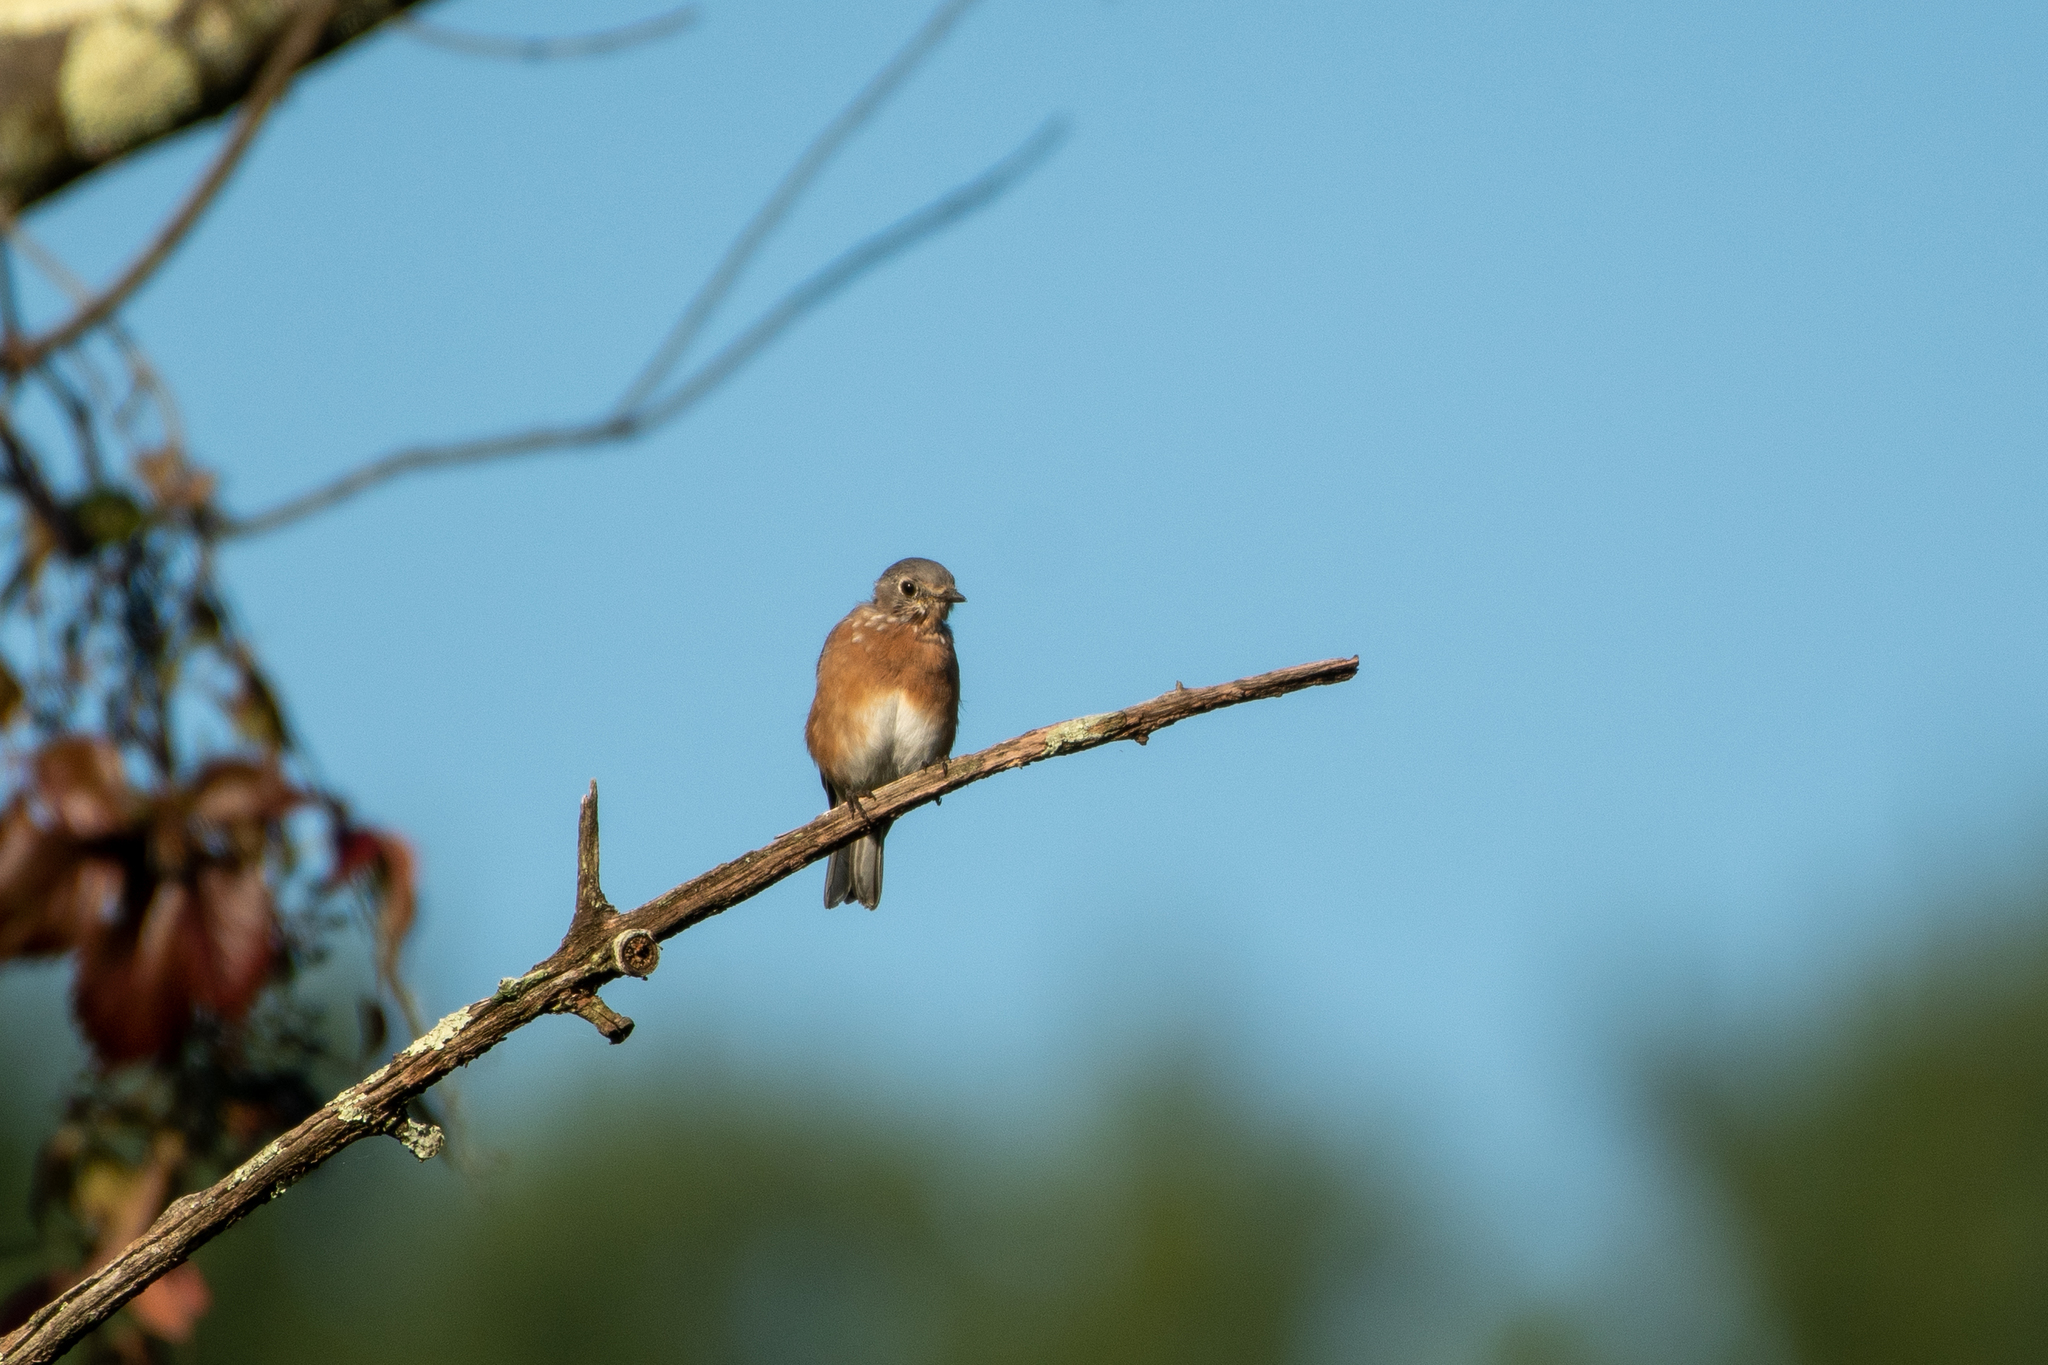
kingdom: Animalia
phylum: Chordata
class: Aves
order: Passeriformes
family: Turdidae
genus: Sialia
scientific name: Sialia sialis
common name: Eastern bluebird
